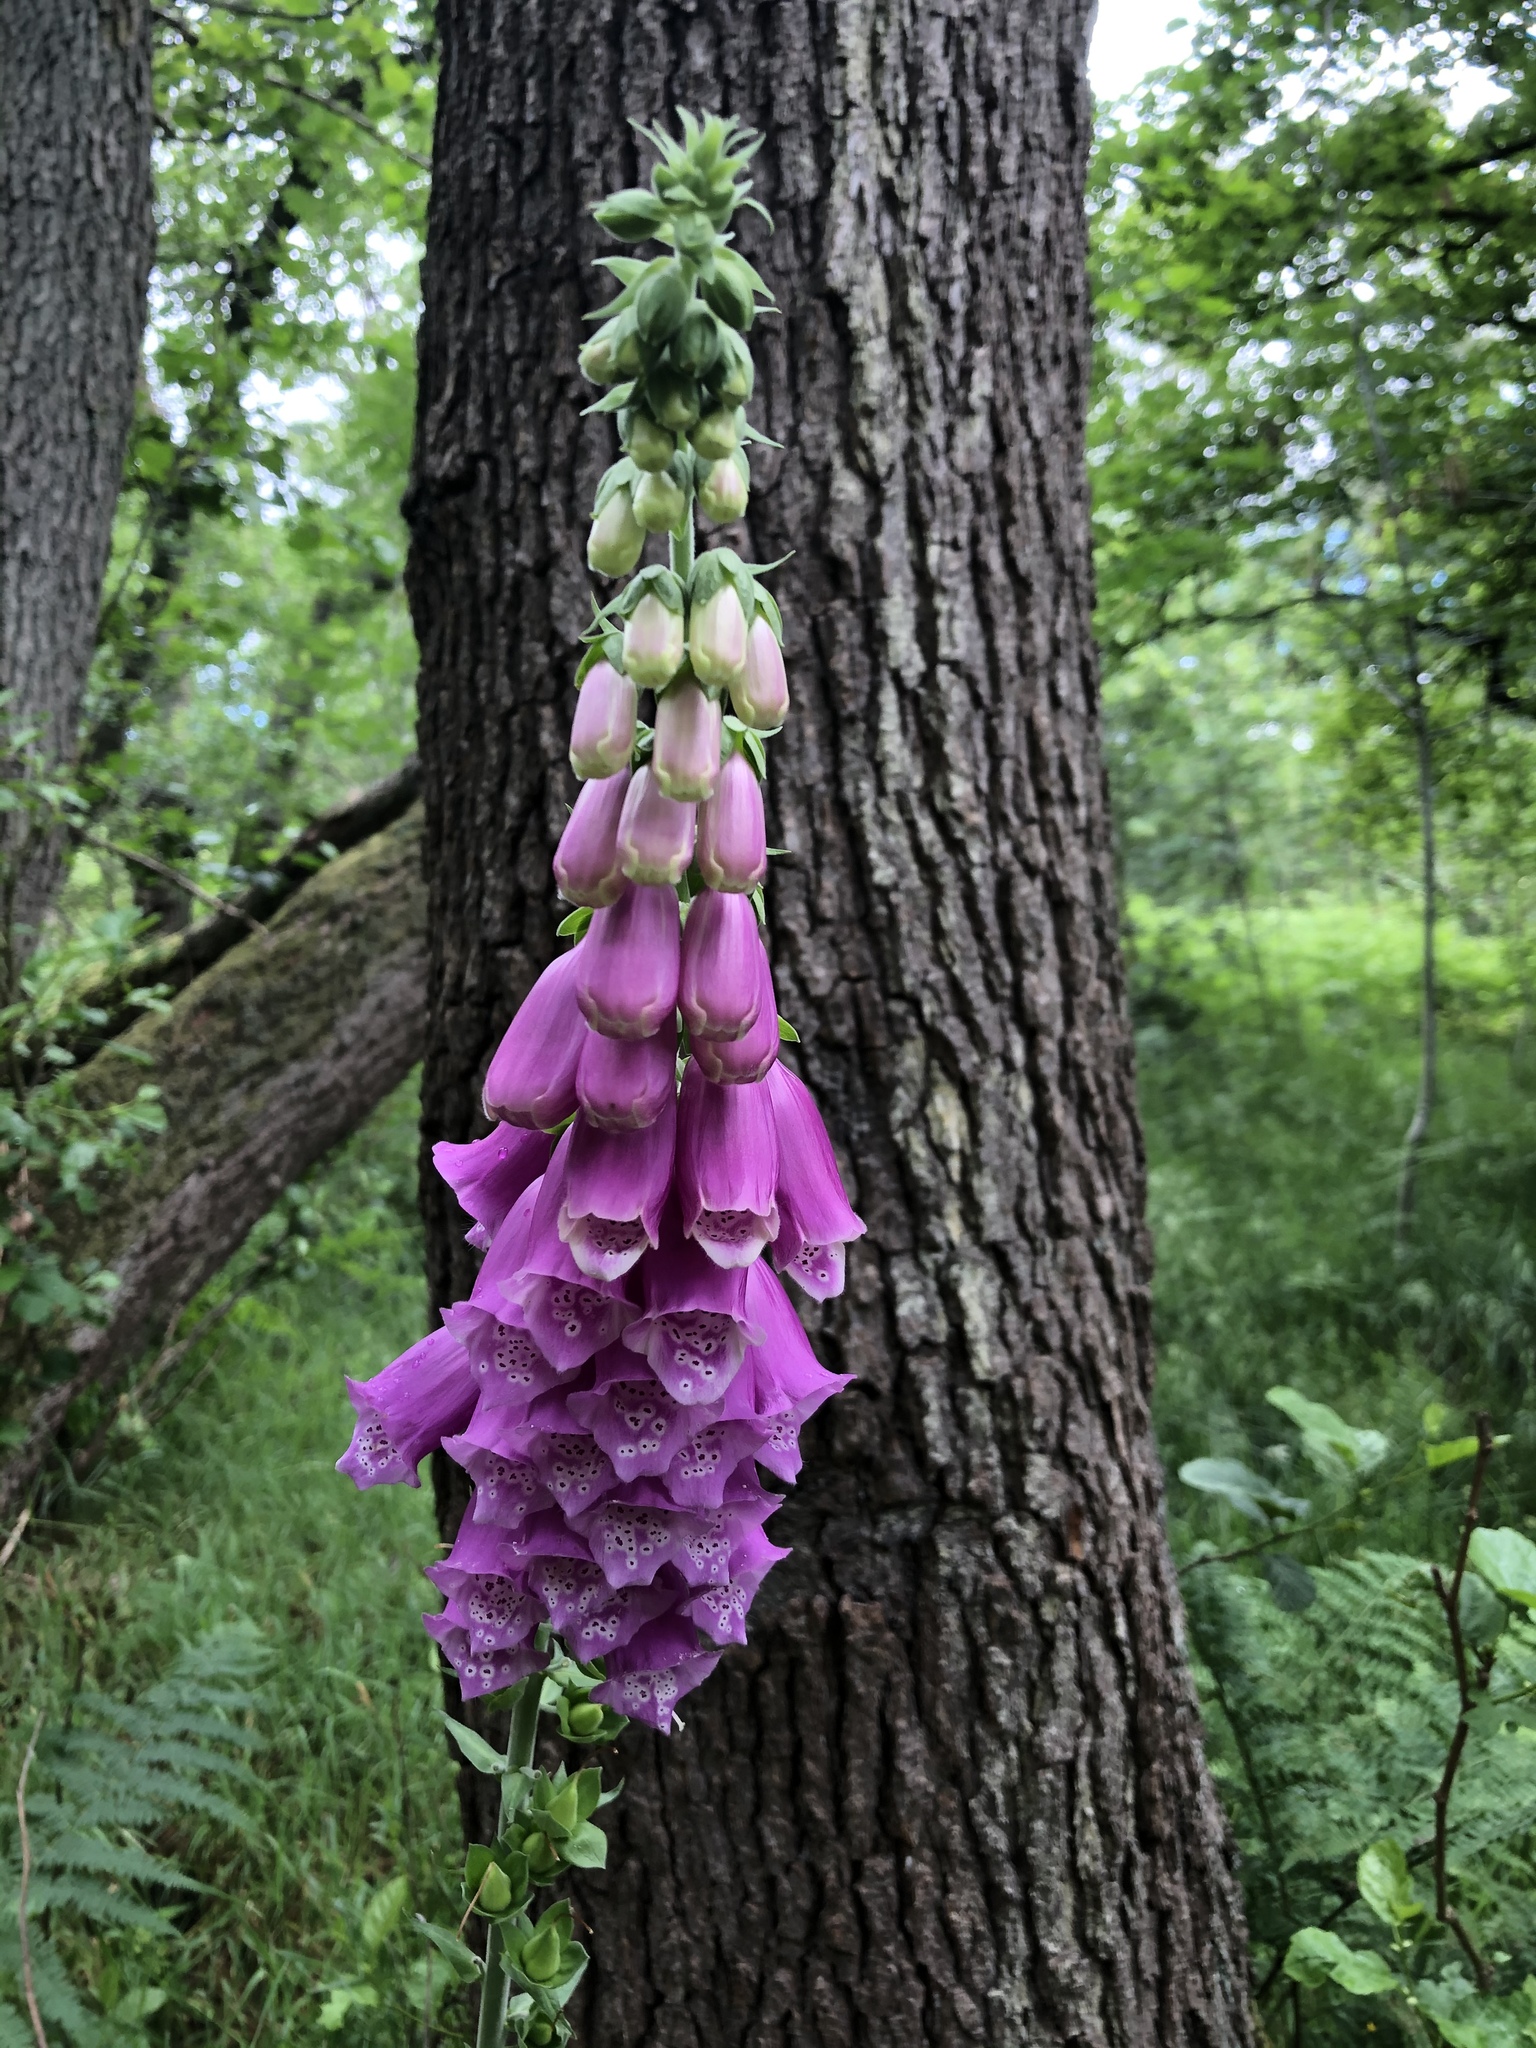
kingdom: Plantae
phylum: Tracheophyta
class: Magnoliopsida
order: Lamiales
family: Plantaginaceae
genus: Digitalis
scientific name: Digitalis purpurea
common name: Foxglove
